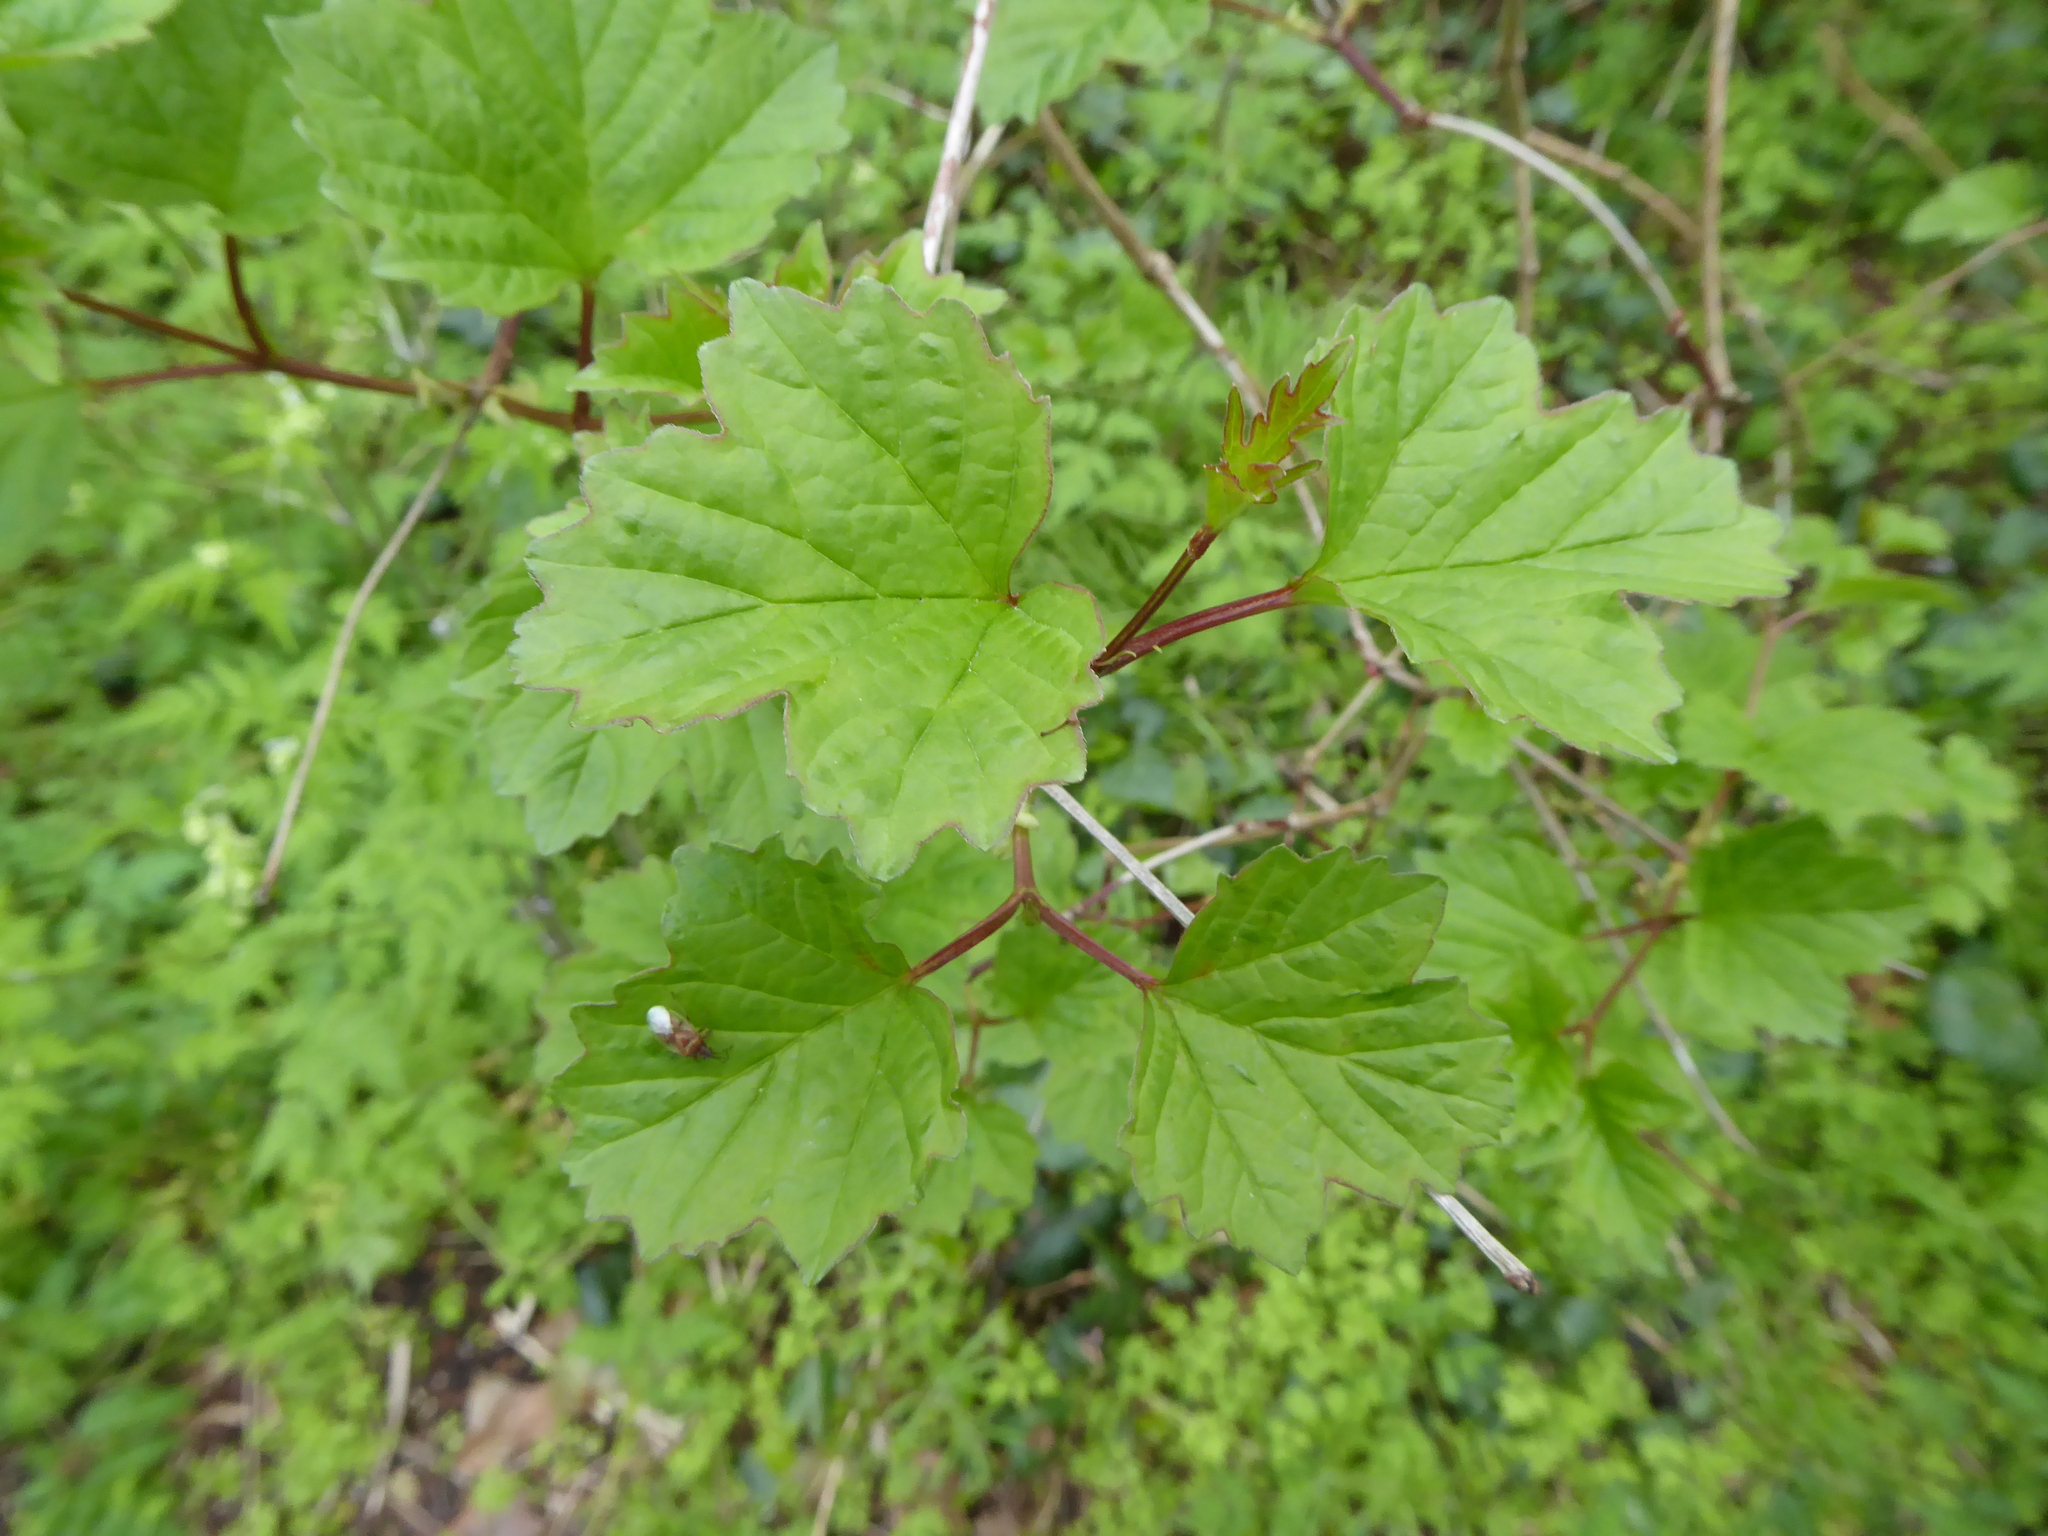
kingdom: Plantae
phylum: Tracheophyta
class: Magnoliopsida
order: Dipsacales
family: Viburnaceae
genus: Viburnum
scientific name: Viburnum opulus
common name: Guelder-rose
